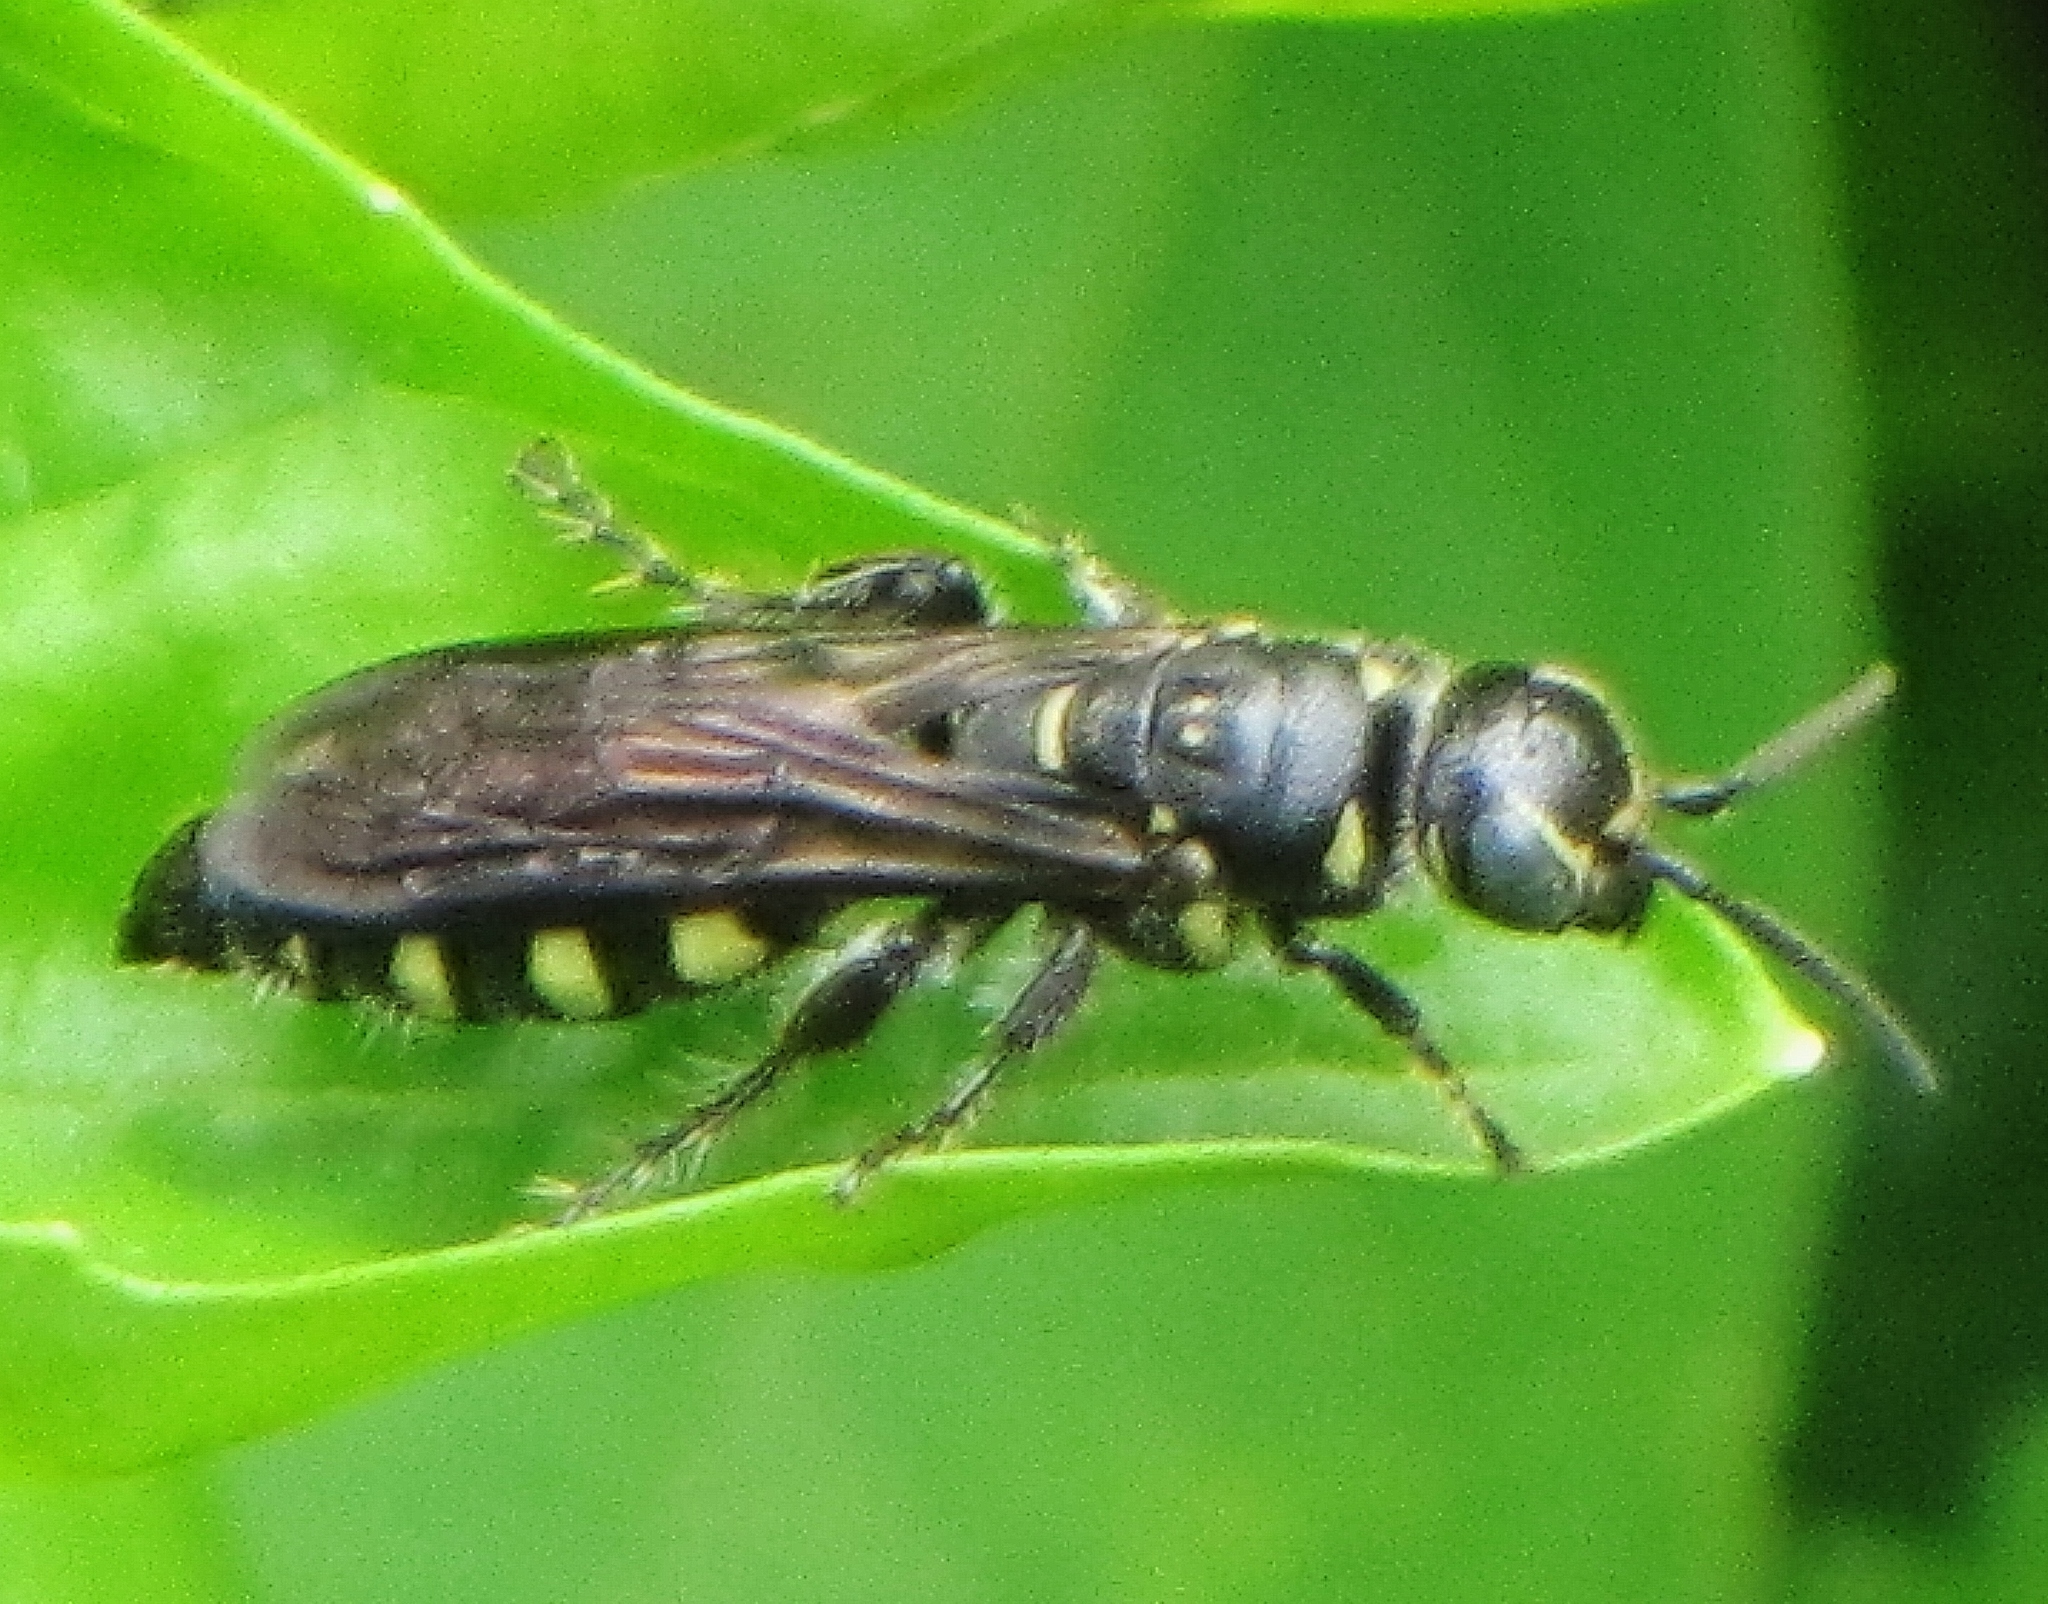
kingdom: Animalia
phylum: Arthropoda
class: Insecta
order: Hymenoptera
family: Tiphiidae
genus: Myzinum
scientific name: Myzinum obscurum
